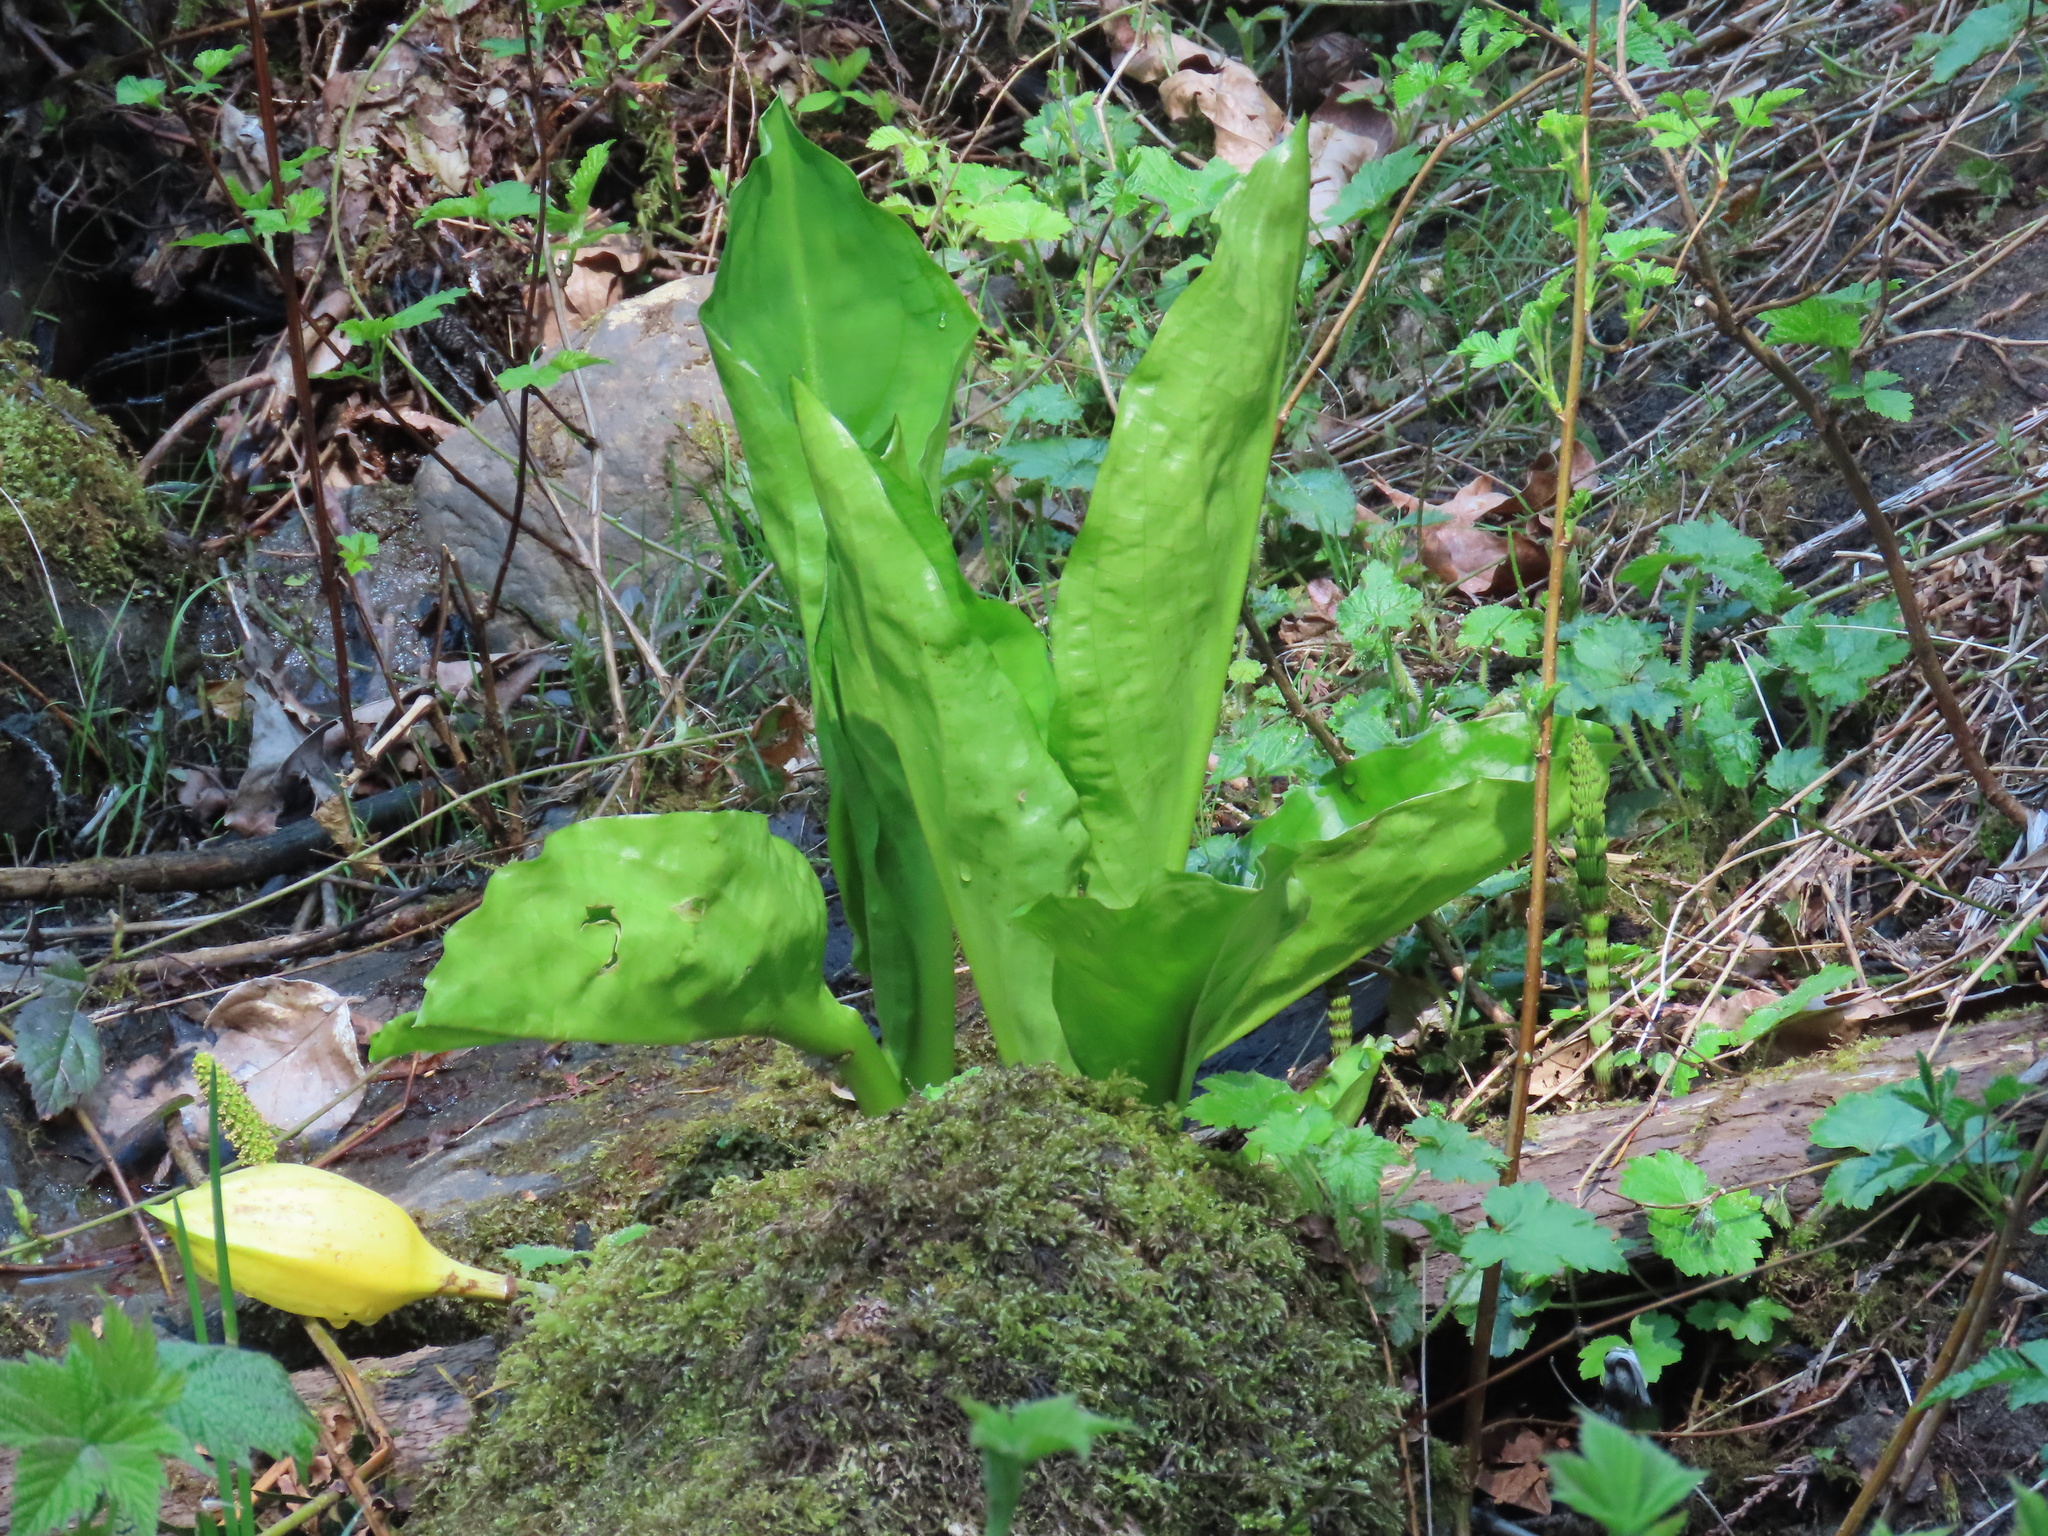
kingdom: Plantae
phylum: Tracheophyta
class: Liliopsida
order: Alismatales
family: Araceae
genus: Lysichiton
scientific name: Lysichiton americanus
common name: American skunk cabbage
